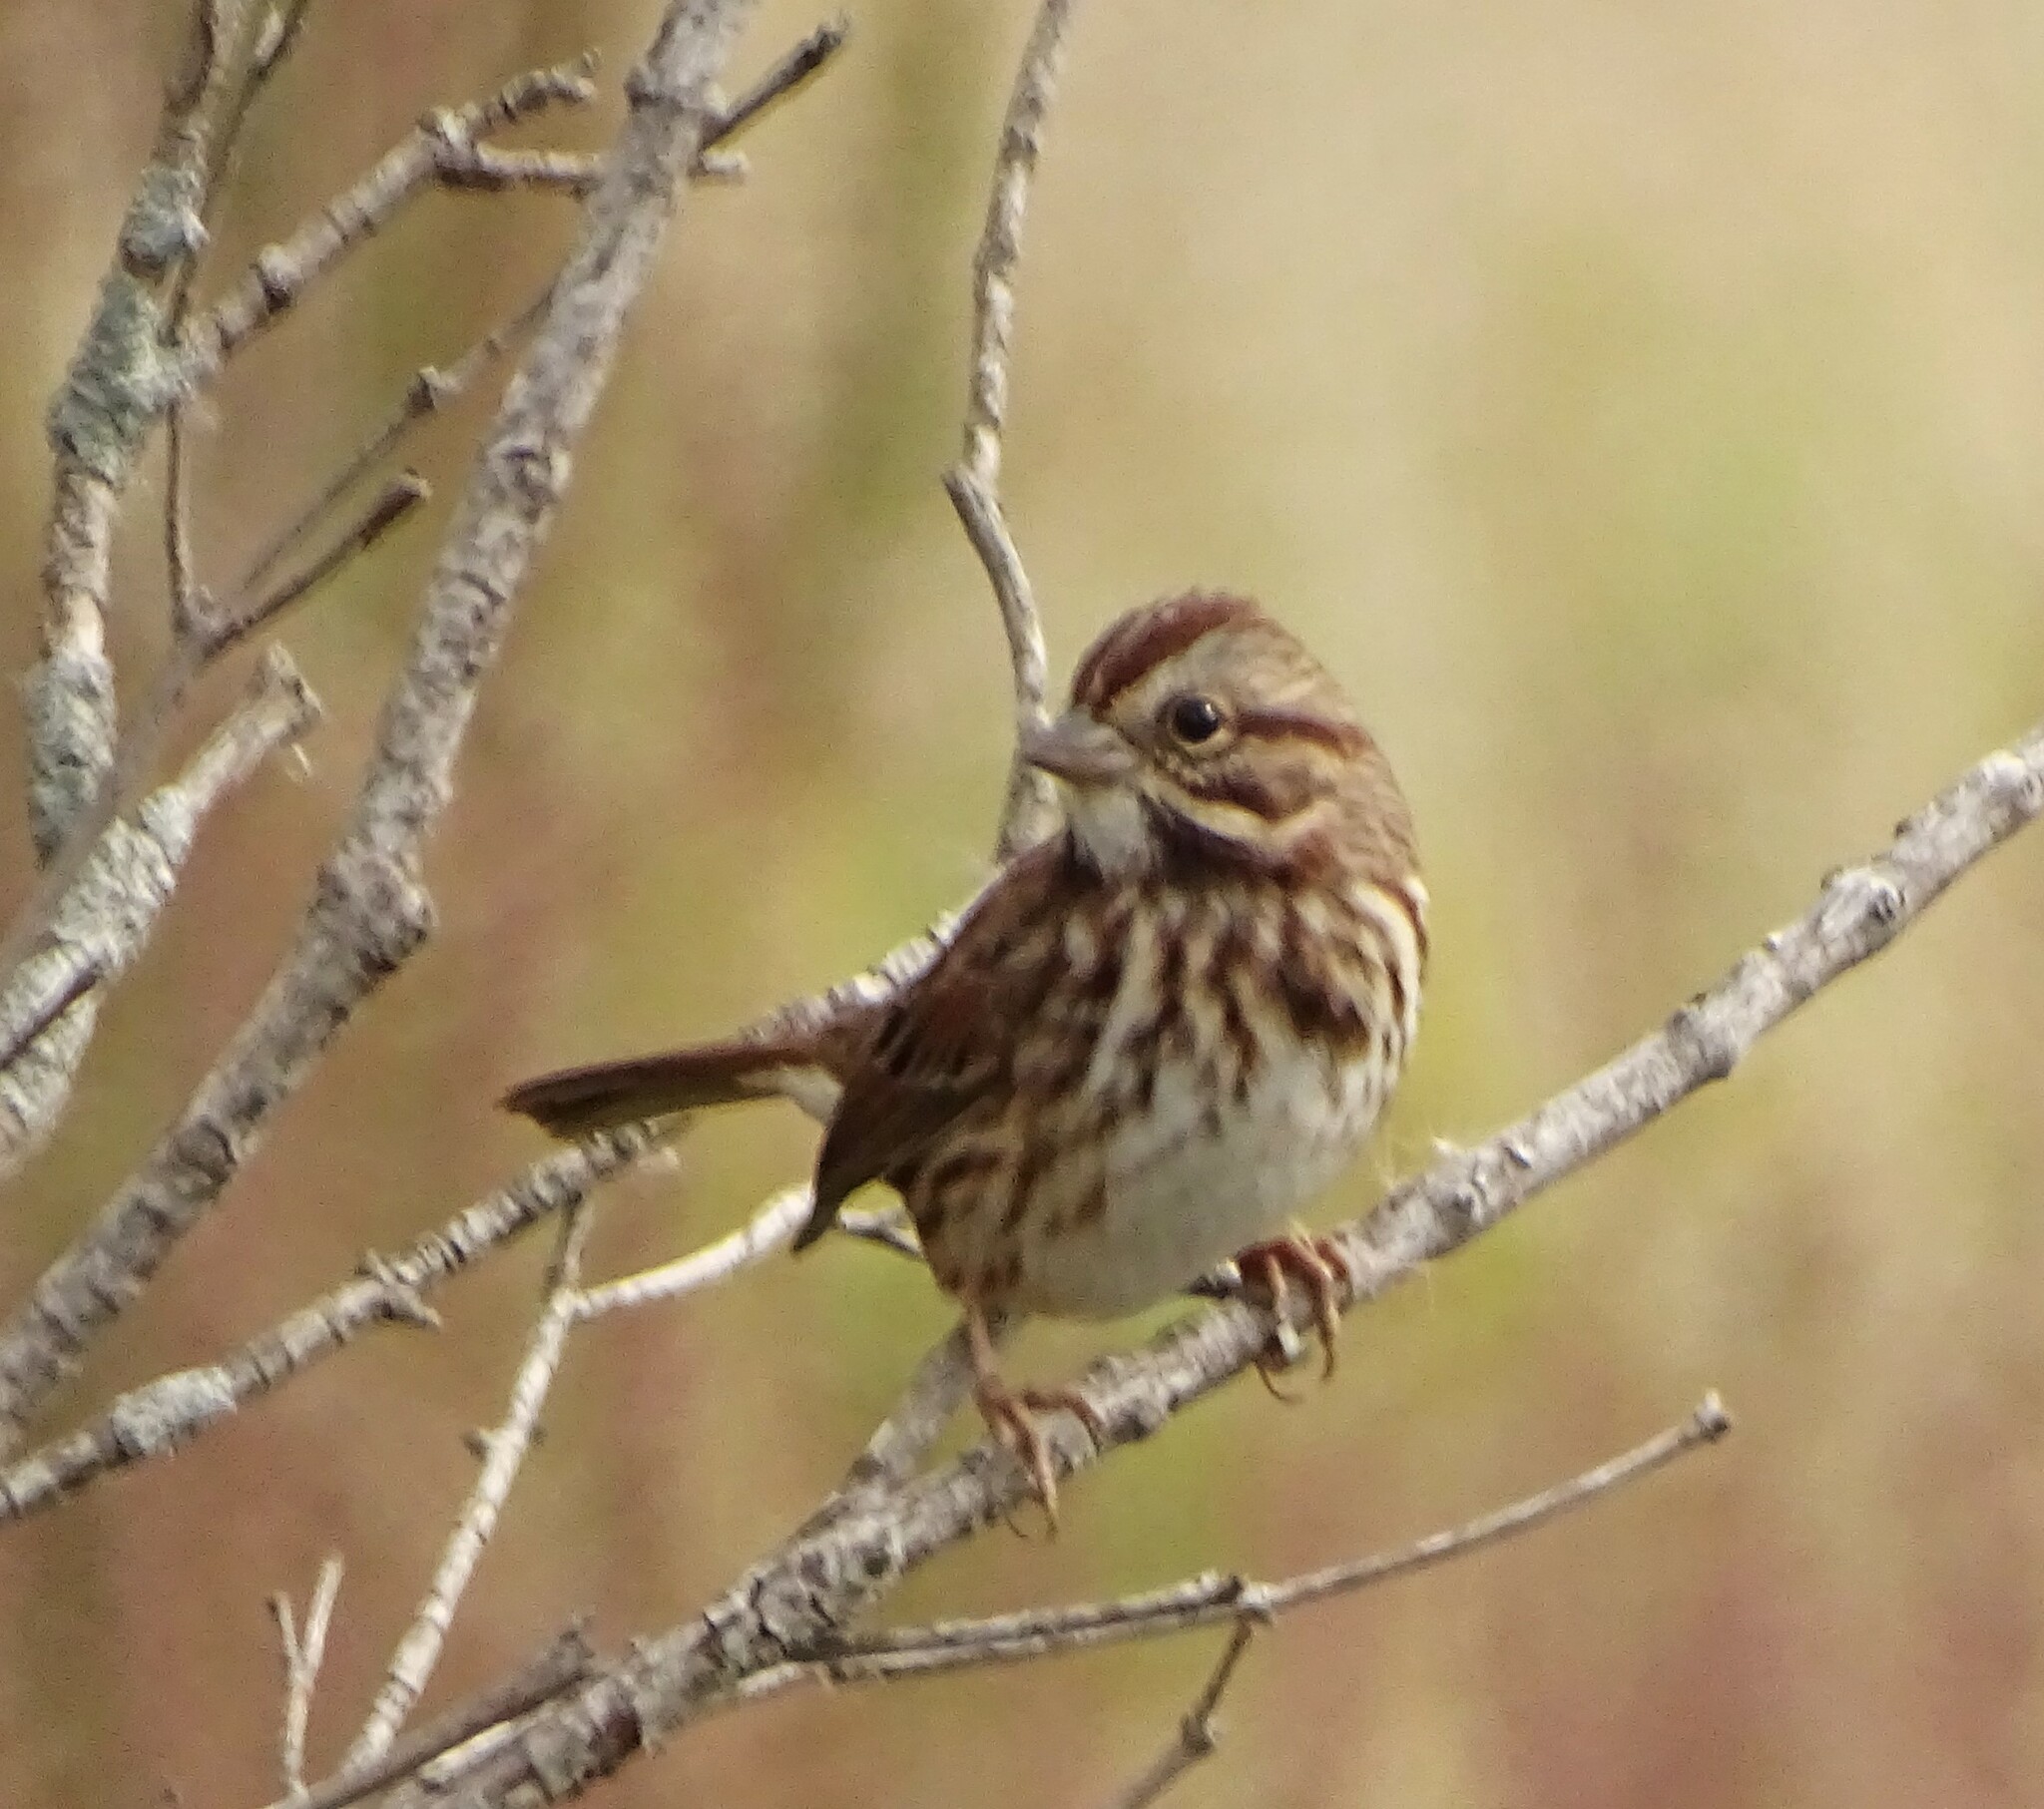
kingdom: Animalia
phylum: Chordata
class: Aves
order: Passeriformes
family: Passerellidae
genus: Melospiza
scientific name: Melospiza melodia
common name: Song sparrow
